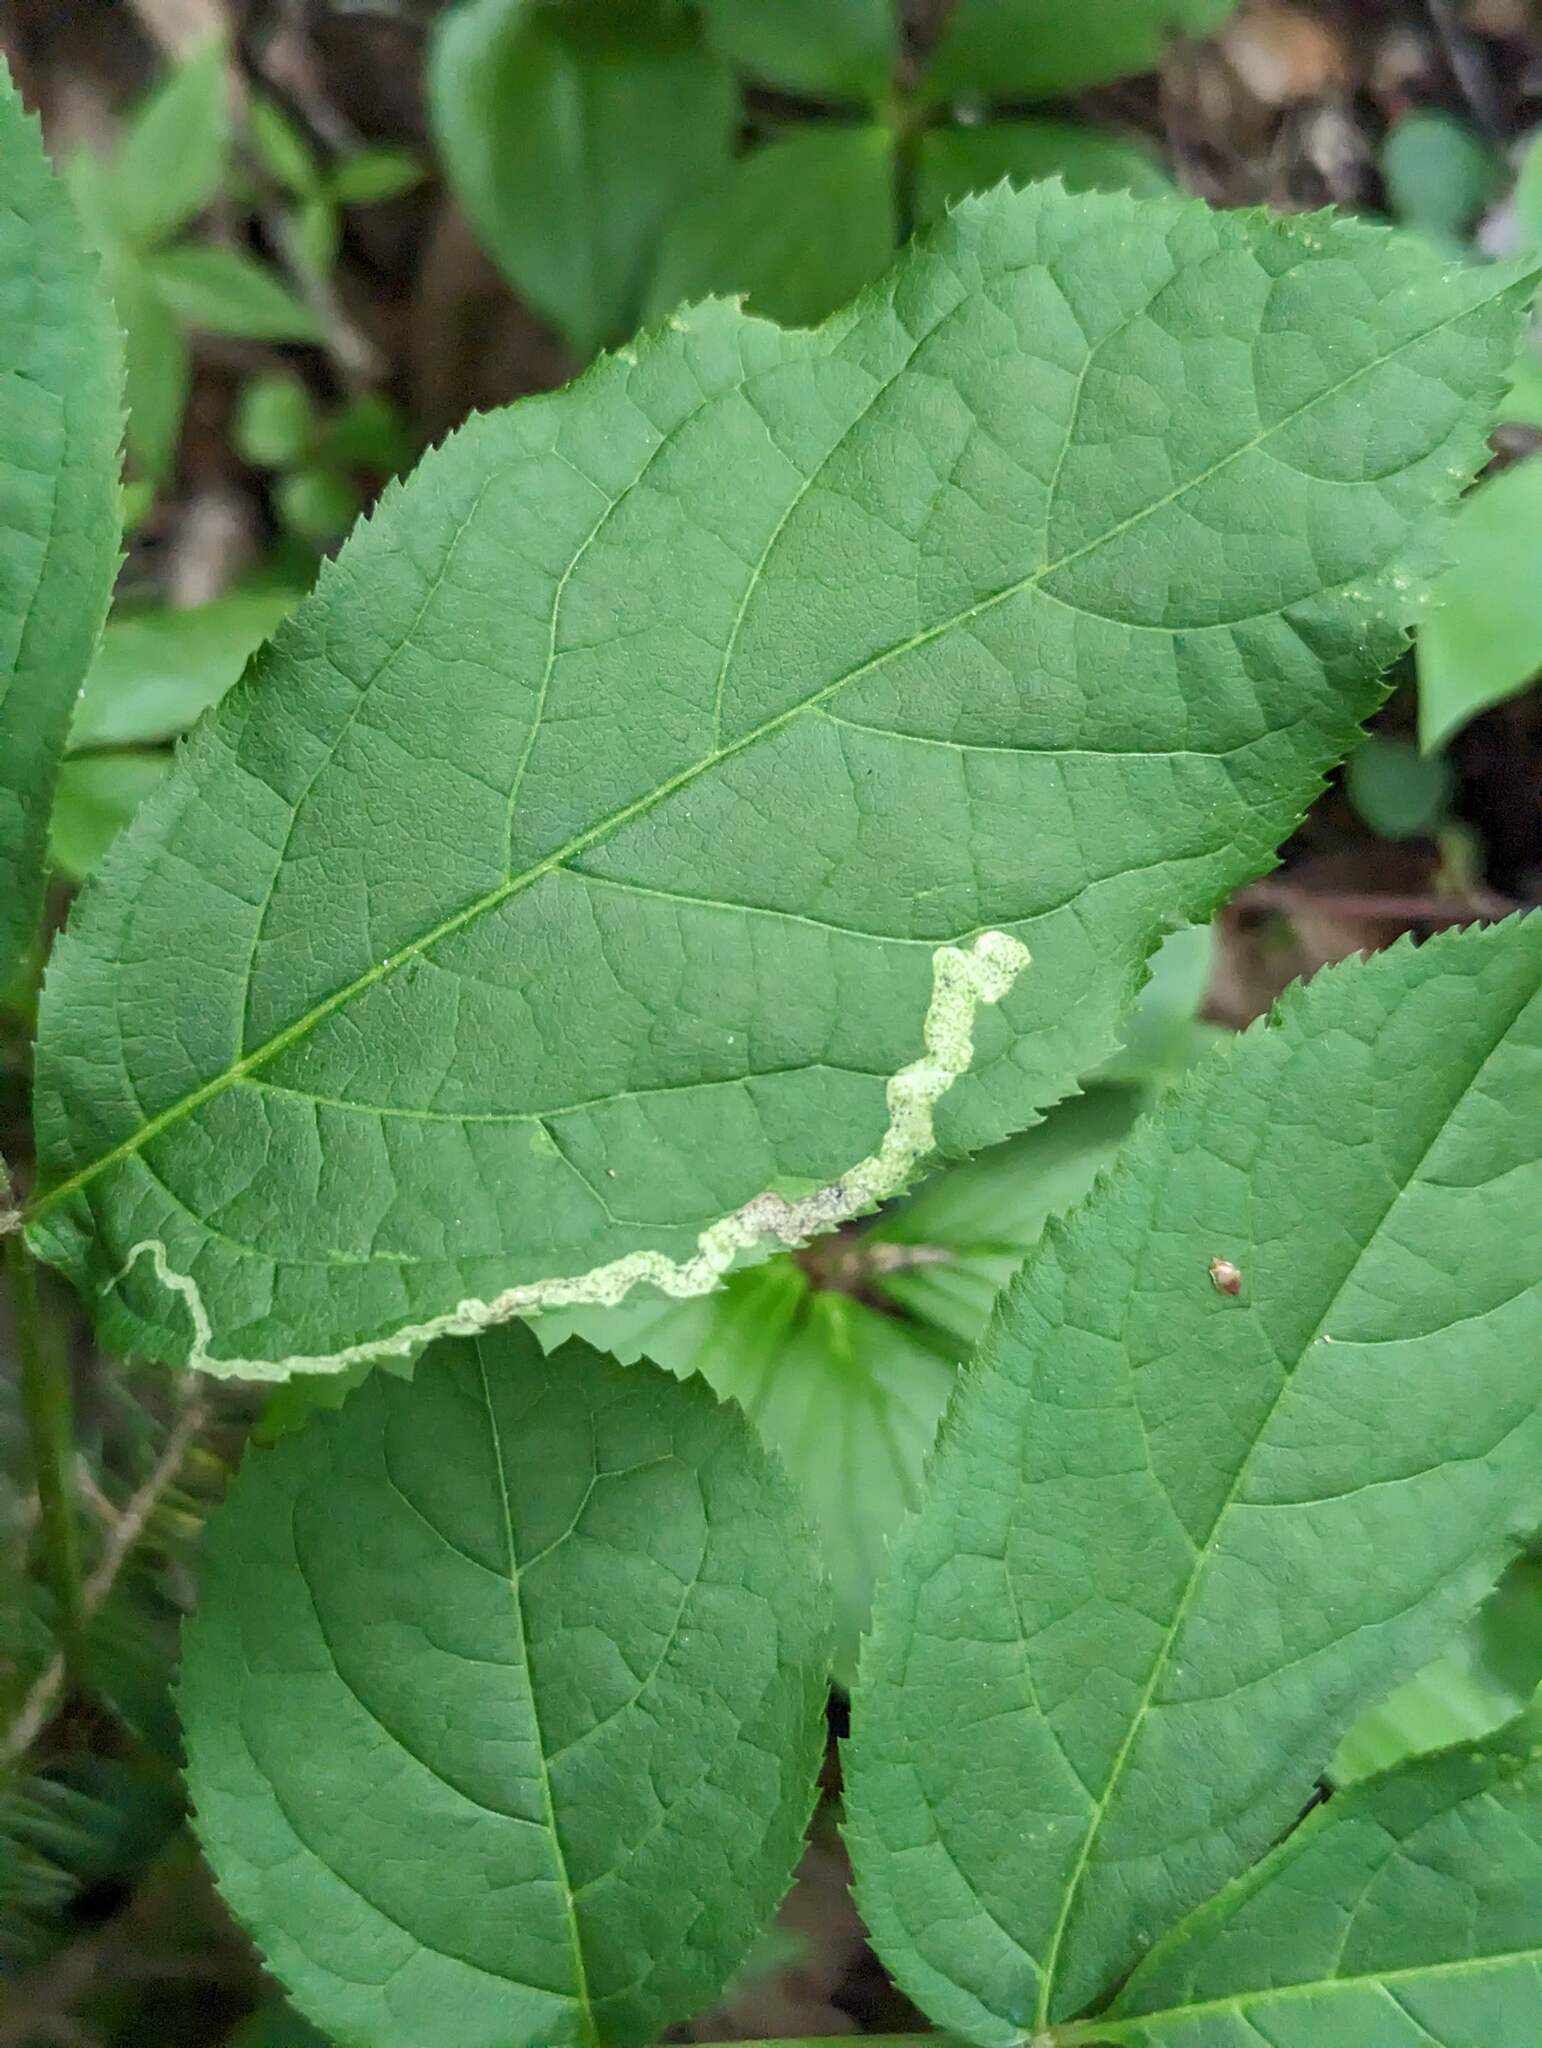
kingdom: Animalia
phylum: Arthropoda
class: Insecta
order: Diptera
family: Agromyzidae
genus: Phytomyza
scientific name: Phytomyza aralivora
